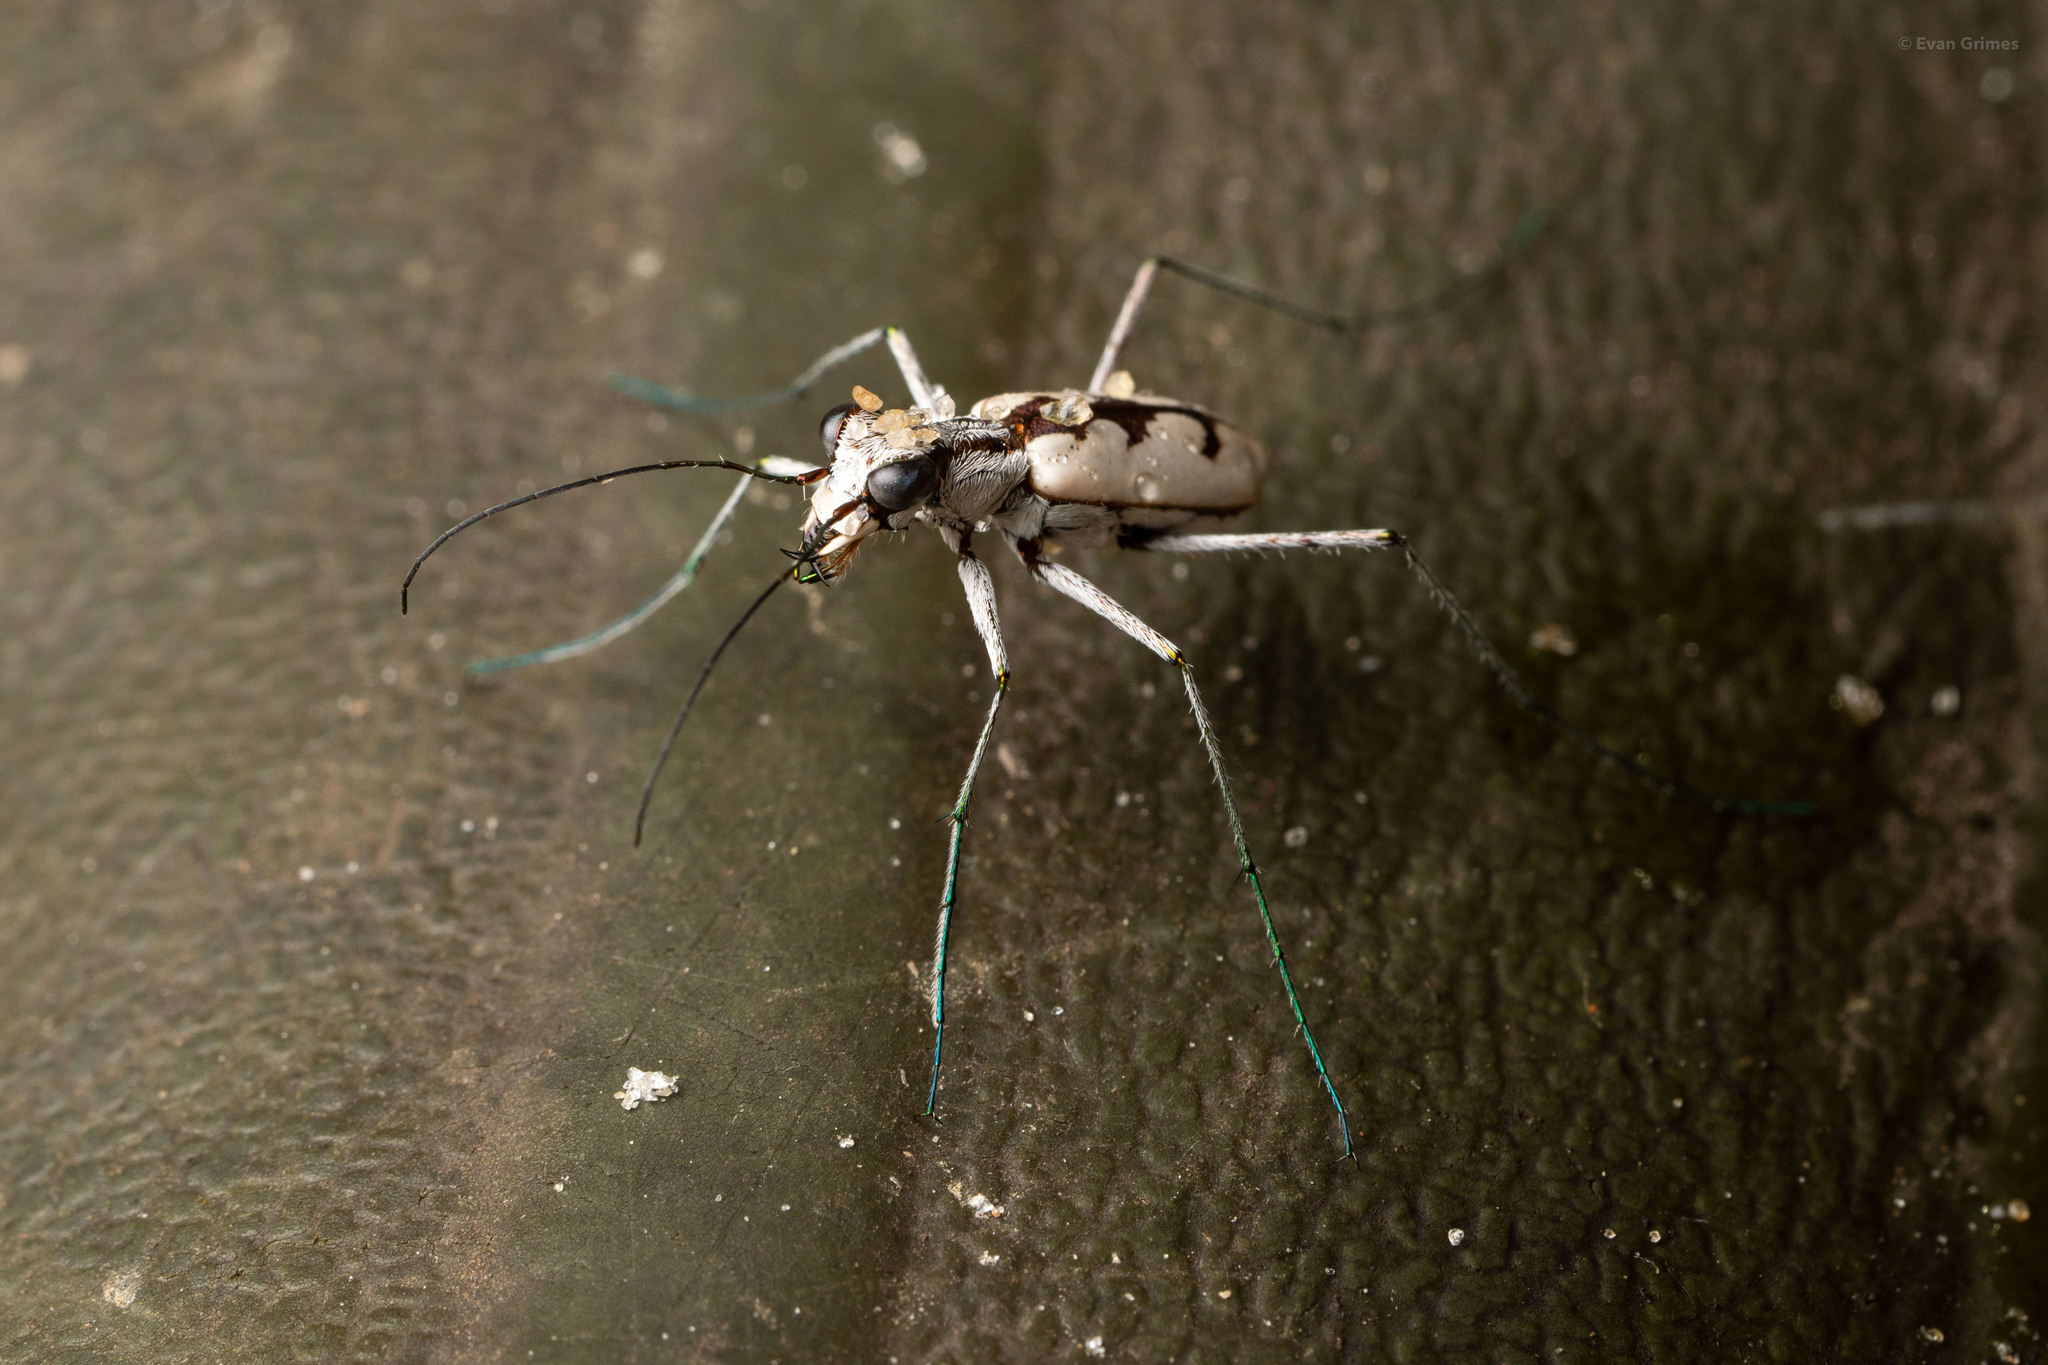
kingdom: Animalia
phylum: Arthropoda
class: Insecta
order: Coleoptera
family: Carabidae
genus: Ellipsoptera
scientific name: Ellipsoptera gratiosa
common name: Whitish tiger beetle
